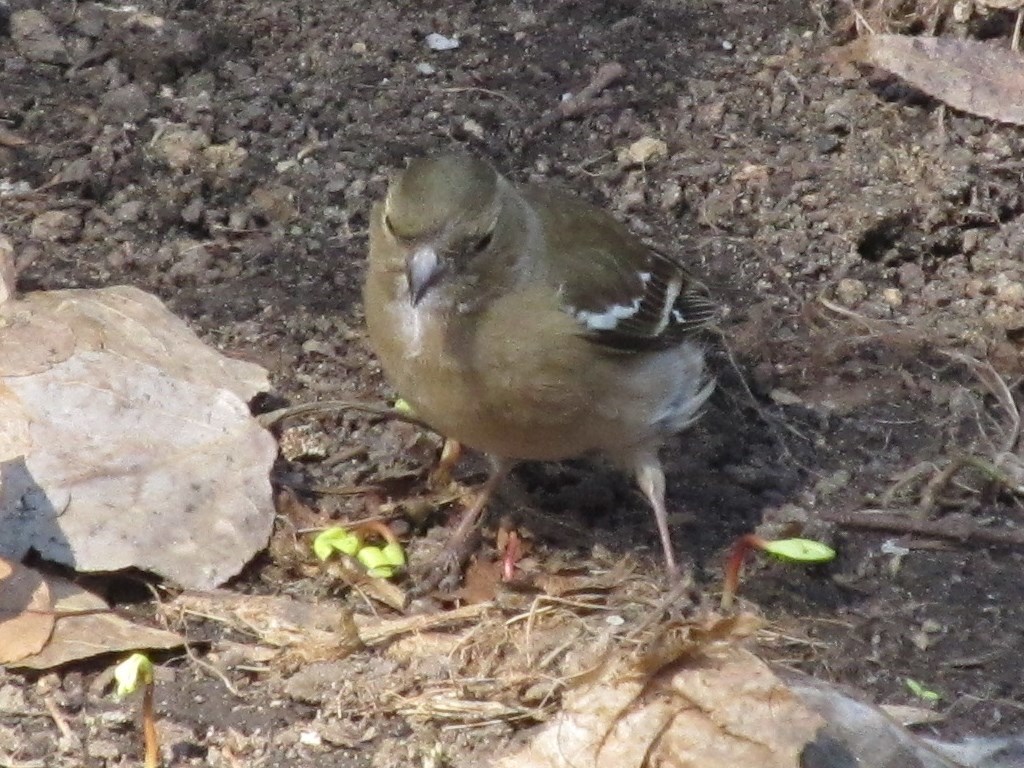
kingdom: Animalia
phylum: Chordata
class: Aves
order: Passeriformes
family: Fringillidae
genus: Fringilla
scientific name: Fringilla coelebs
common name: Common chaffinch
